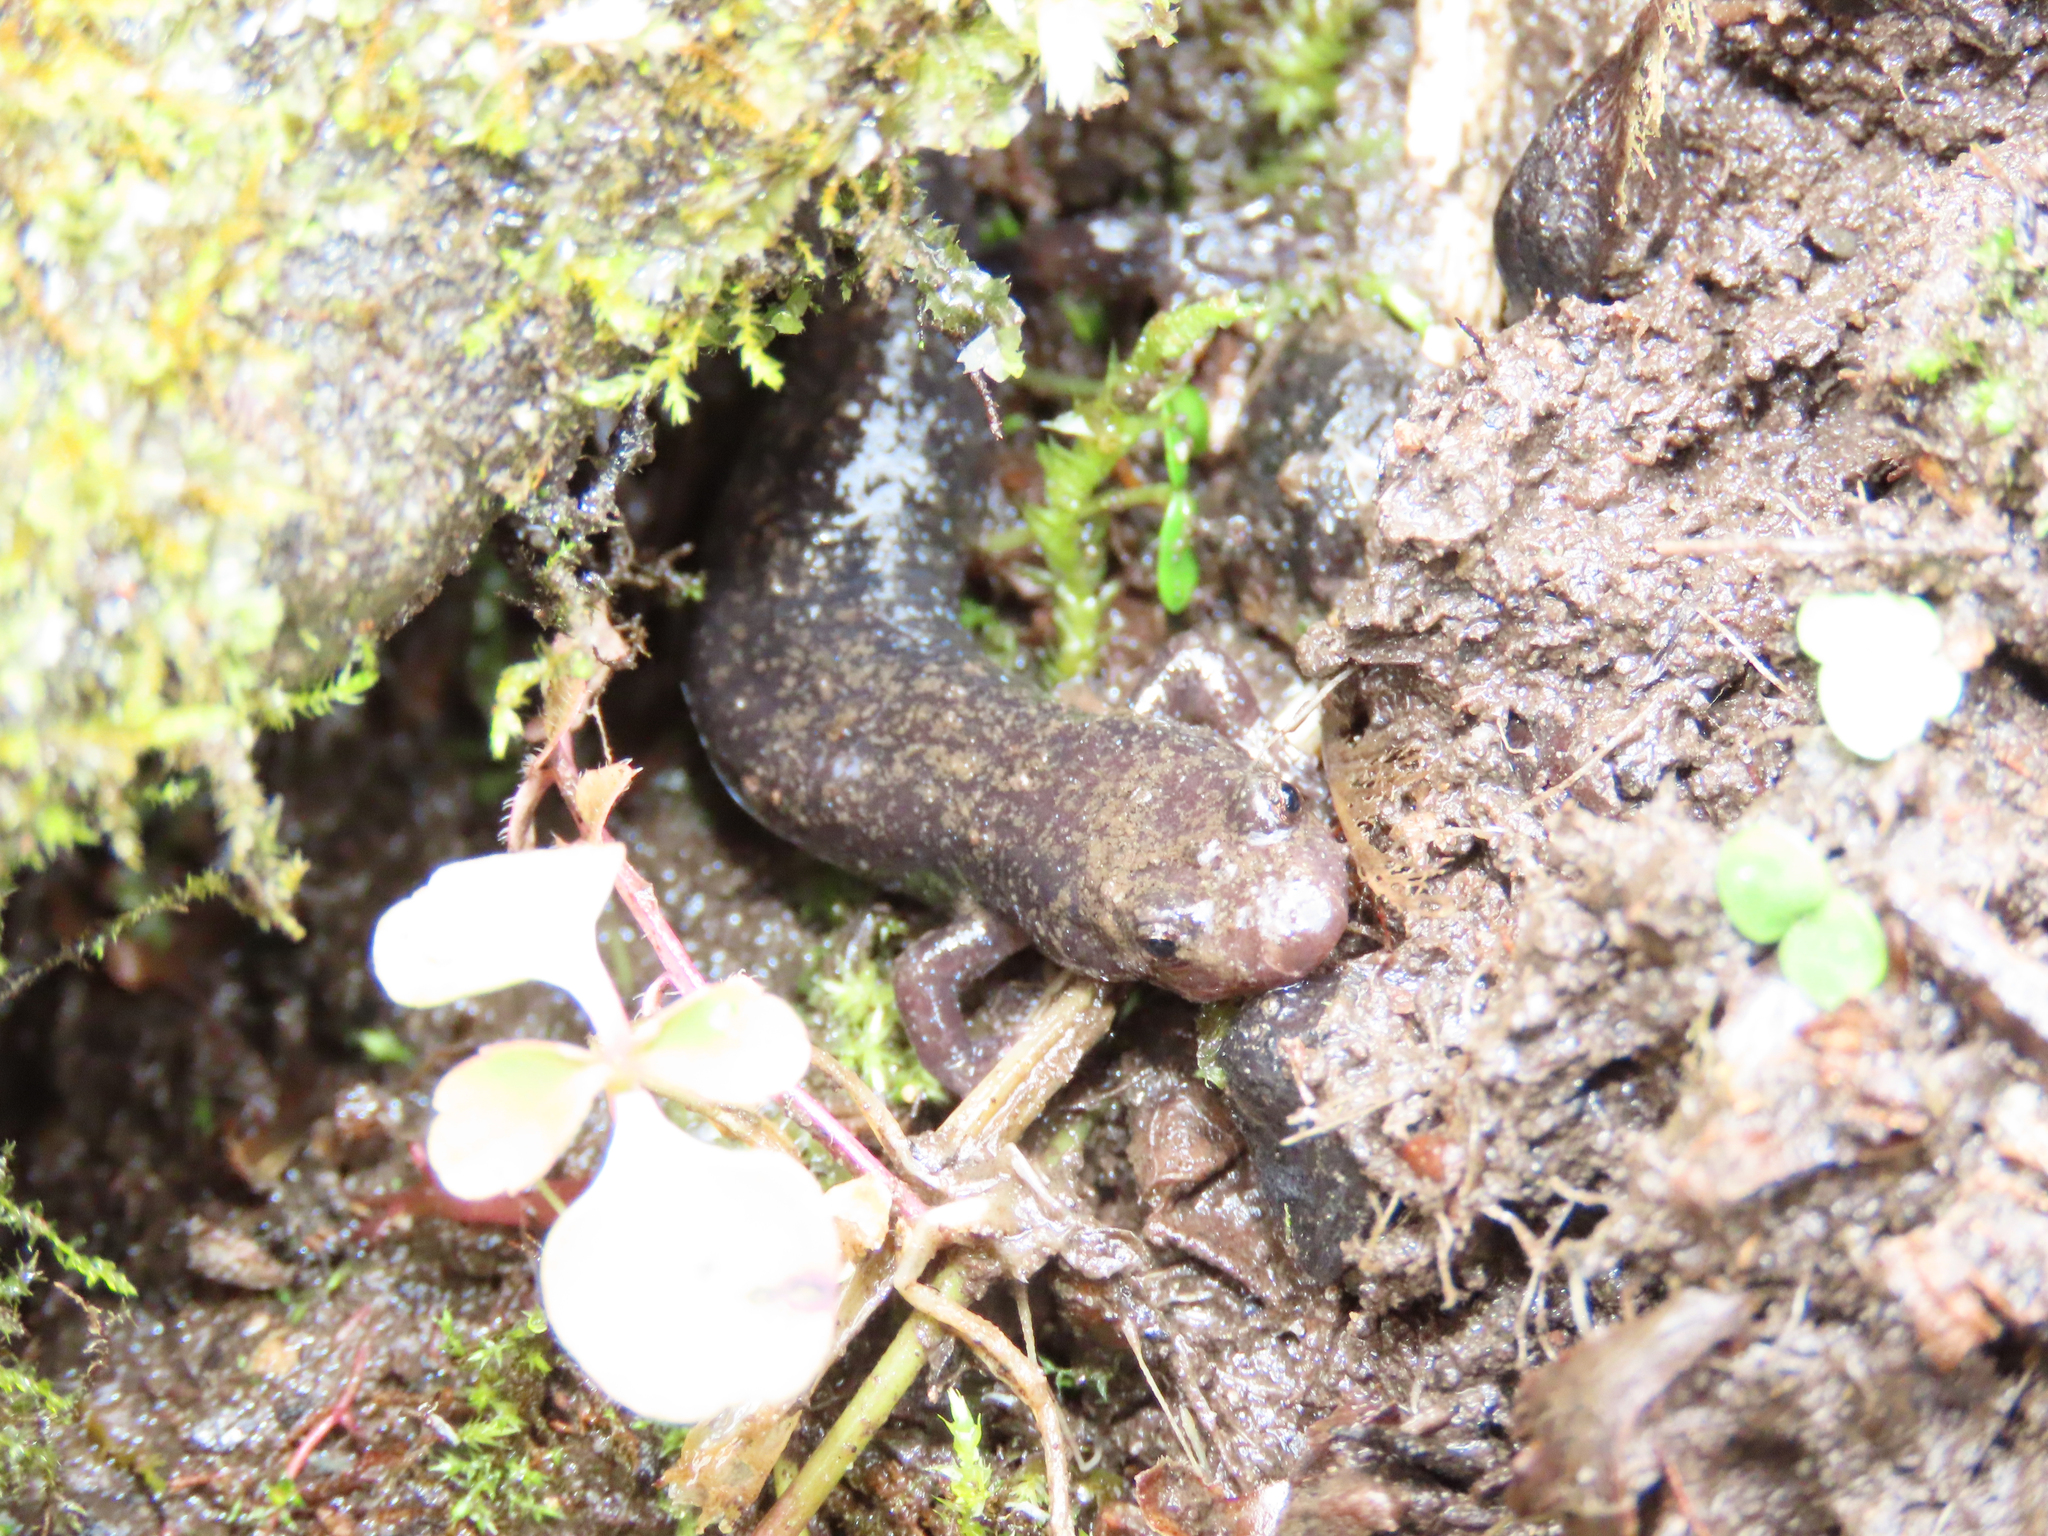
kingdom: Animalia
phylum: Chordata
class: Amphibia
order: Caudata
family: Plethodontidae
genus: Desmognathus
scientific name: Desmognathus fuscus
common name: Northern dusky salamander
